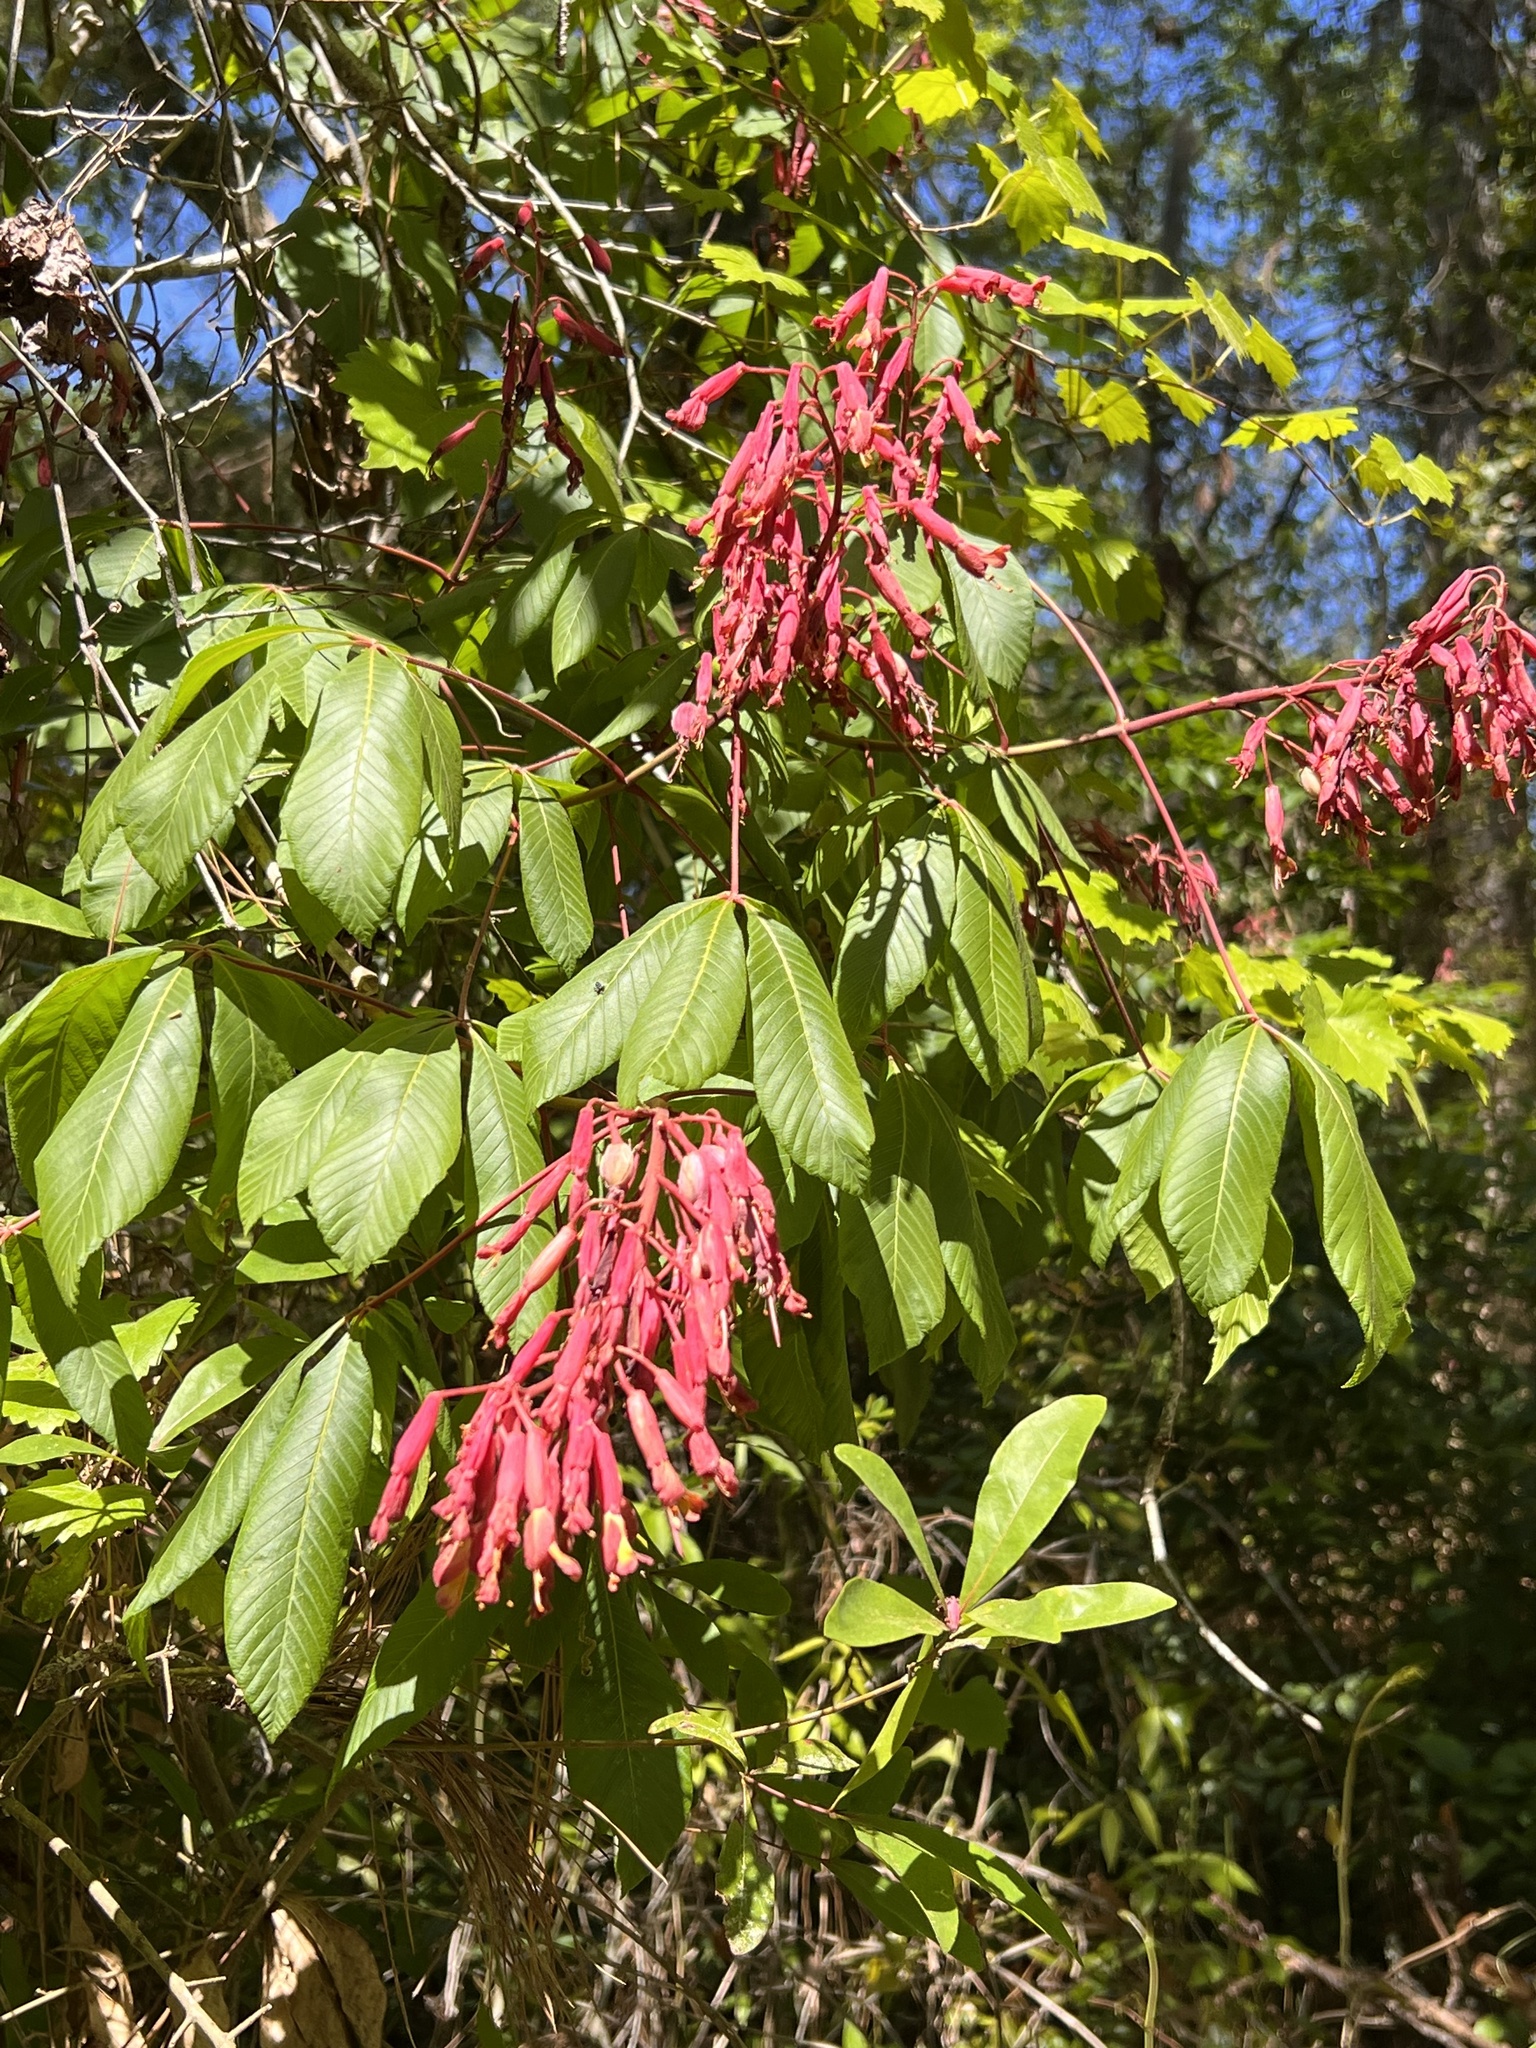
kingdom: Plantae
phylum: Tracheophyta
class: Magnoliopsida
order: Sapindales
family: Sapindaceae
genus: Aesculus
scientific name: Aesculus pavia
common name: Red buckeye
